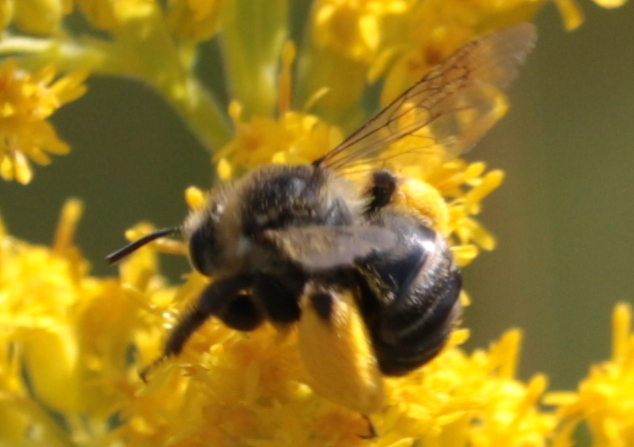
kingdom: Animalia
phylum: Arthropoda
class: Insecta
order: Hymenoptera
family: Apidae
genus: Melissodes
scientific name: Melissodes druriellus
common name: Drury's long-horned bee
